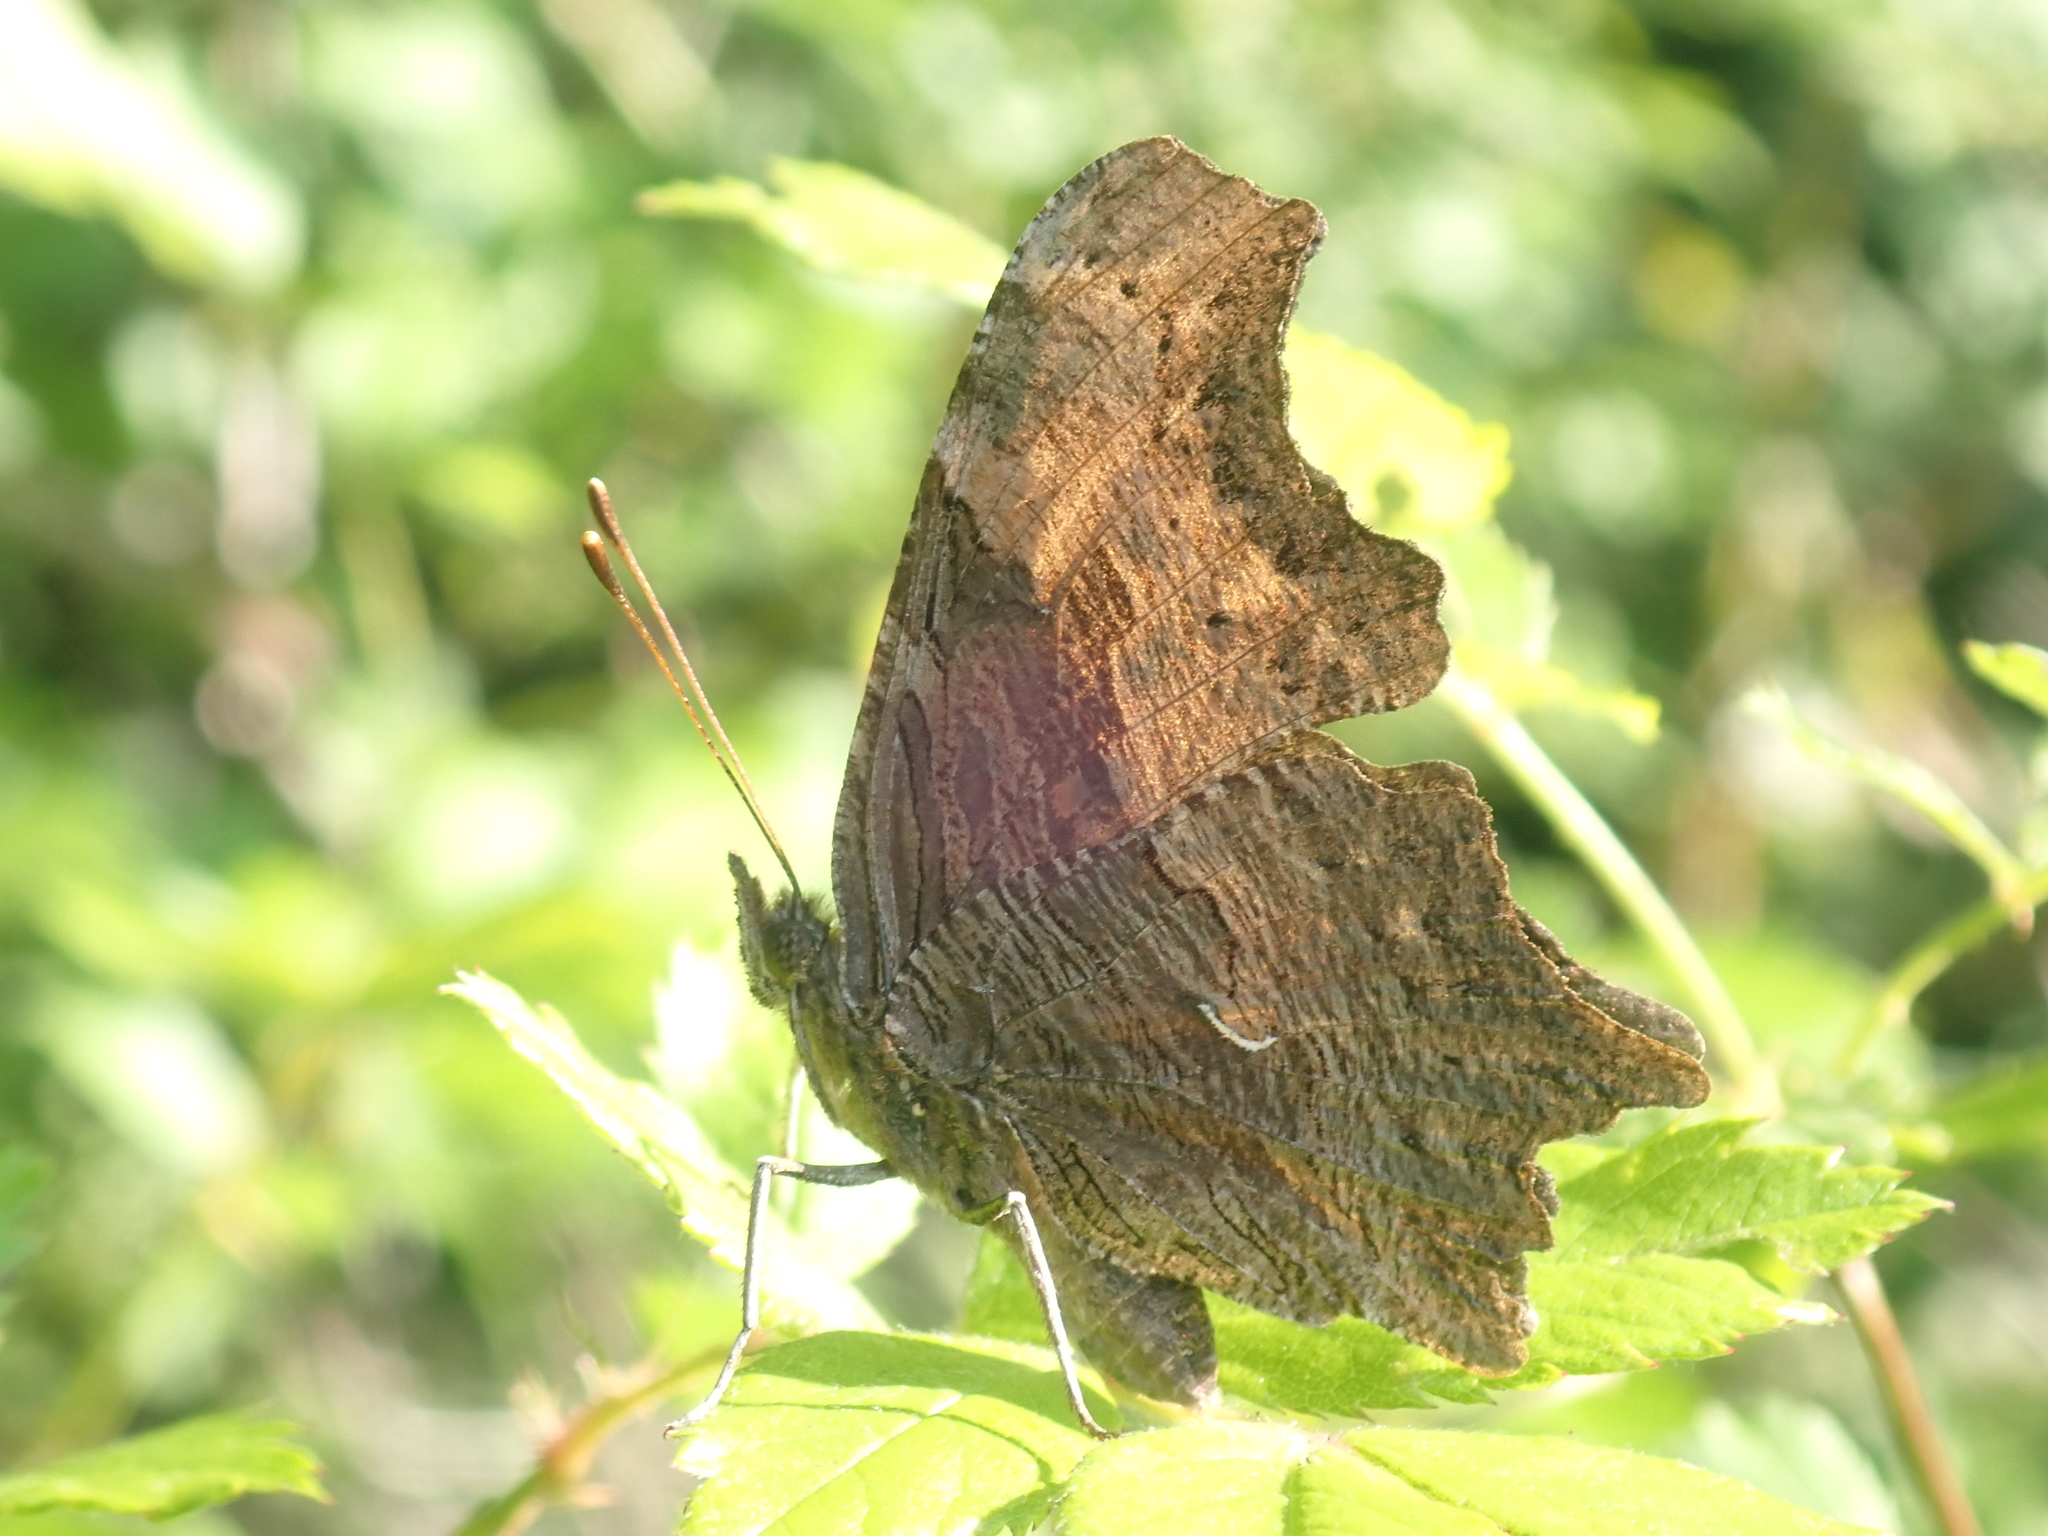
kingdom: Animalia
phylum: Arthropoda
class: Insecta
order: Lepidoptera
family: Nymphalidae
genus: Polygonia
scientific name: Polygonia progne
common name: Gray comma
